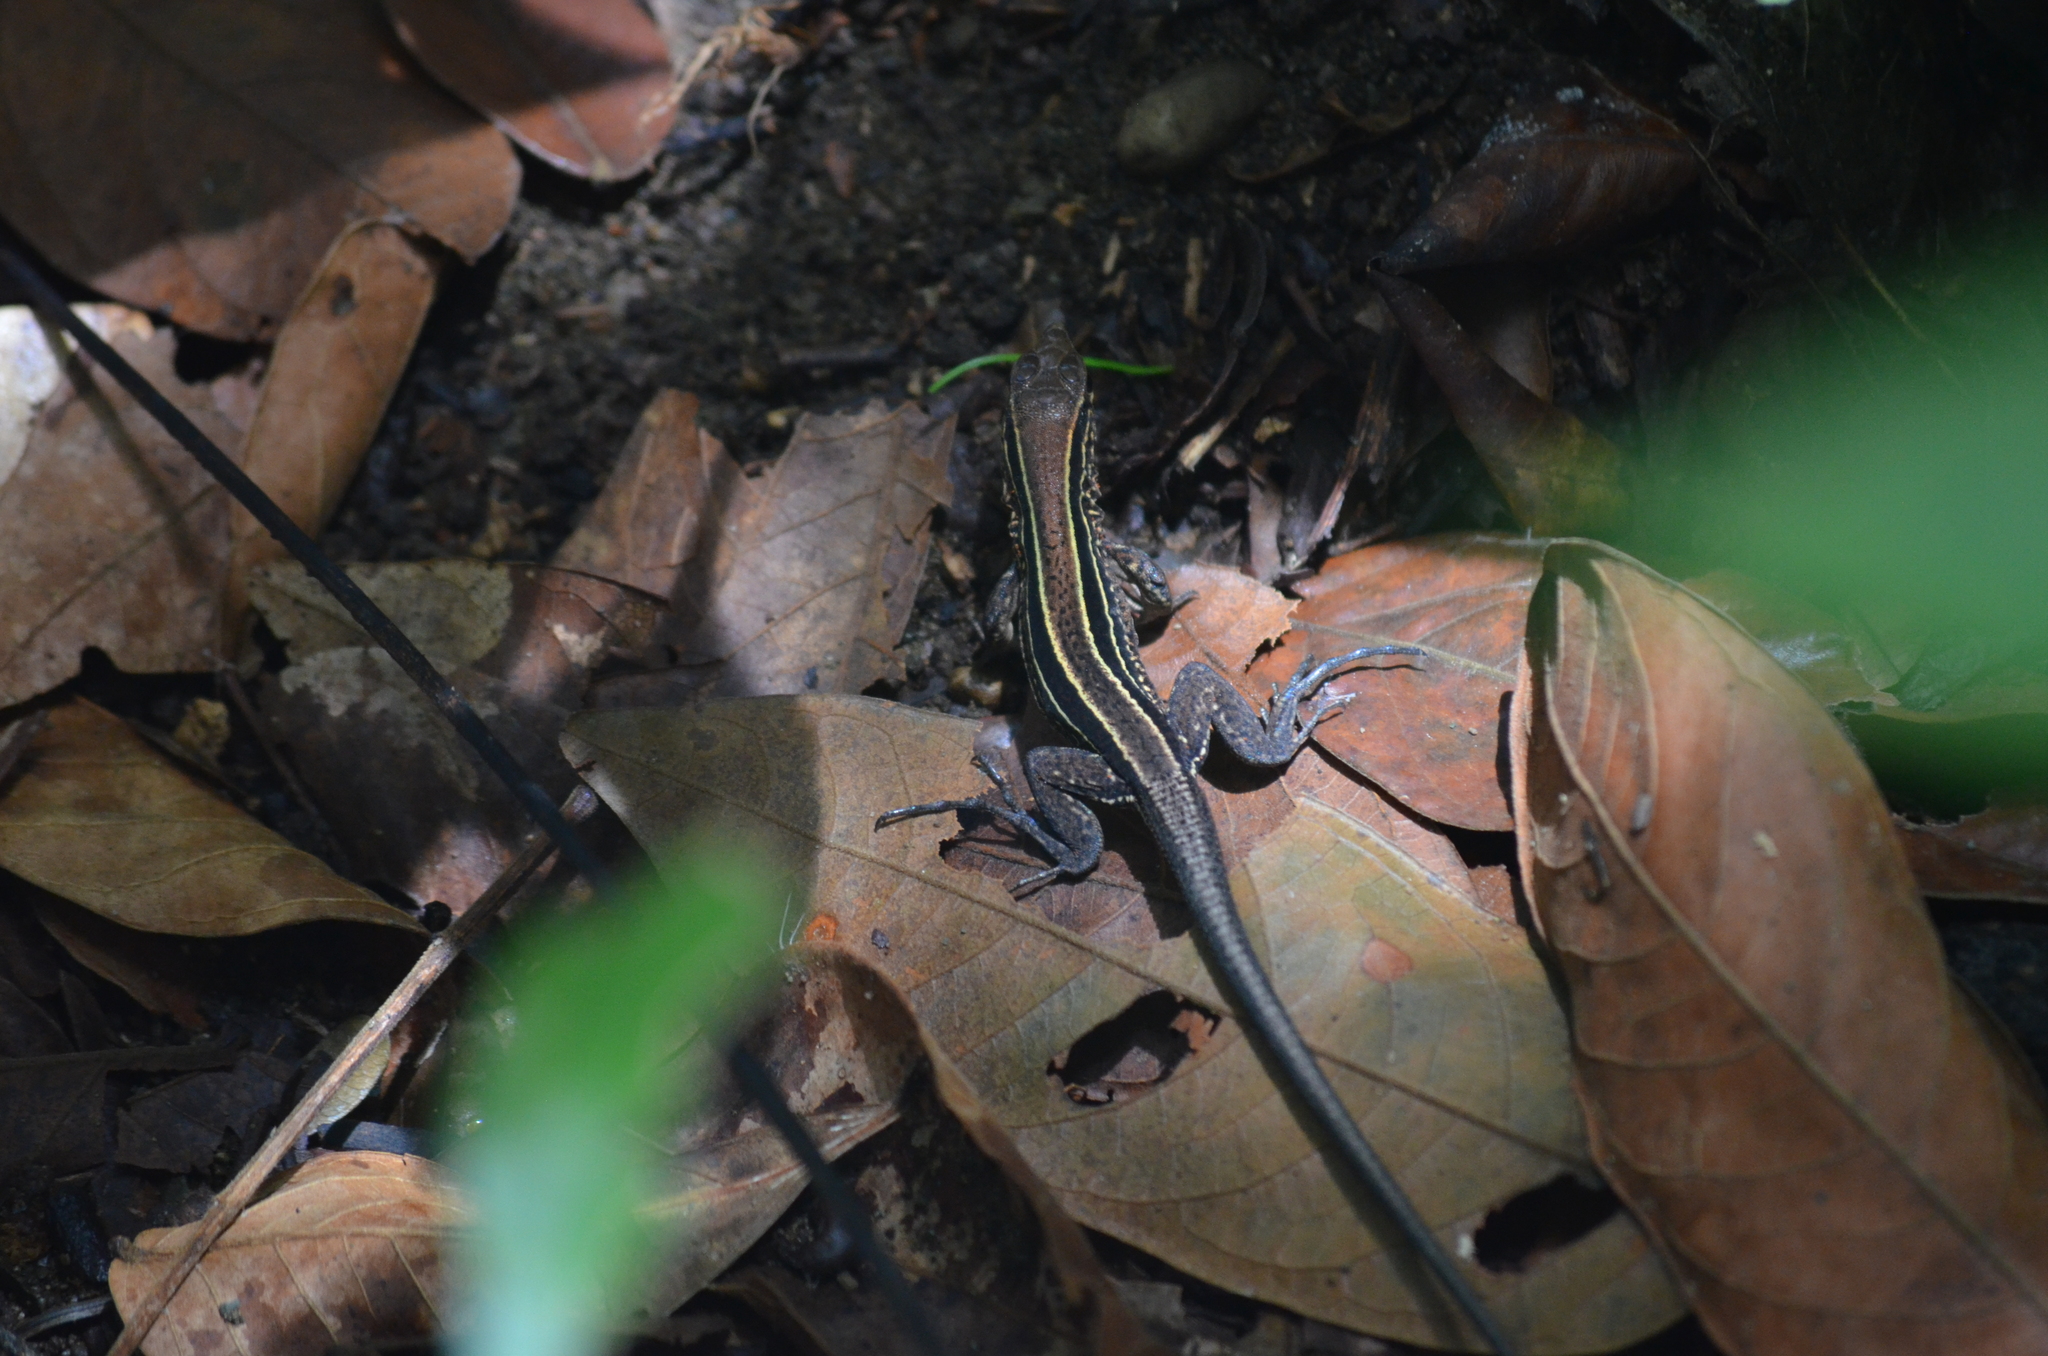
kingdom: Animalia
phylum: Chordata
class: Squamata
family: Teiidae
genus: Holcosus
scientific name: Holcosus quadrilineatus
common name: Four-lined ameiva
